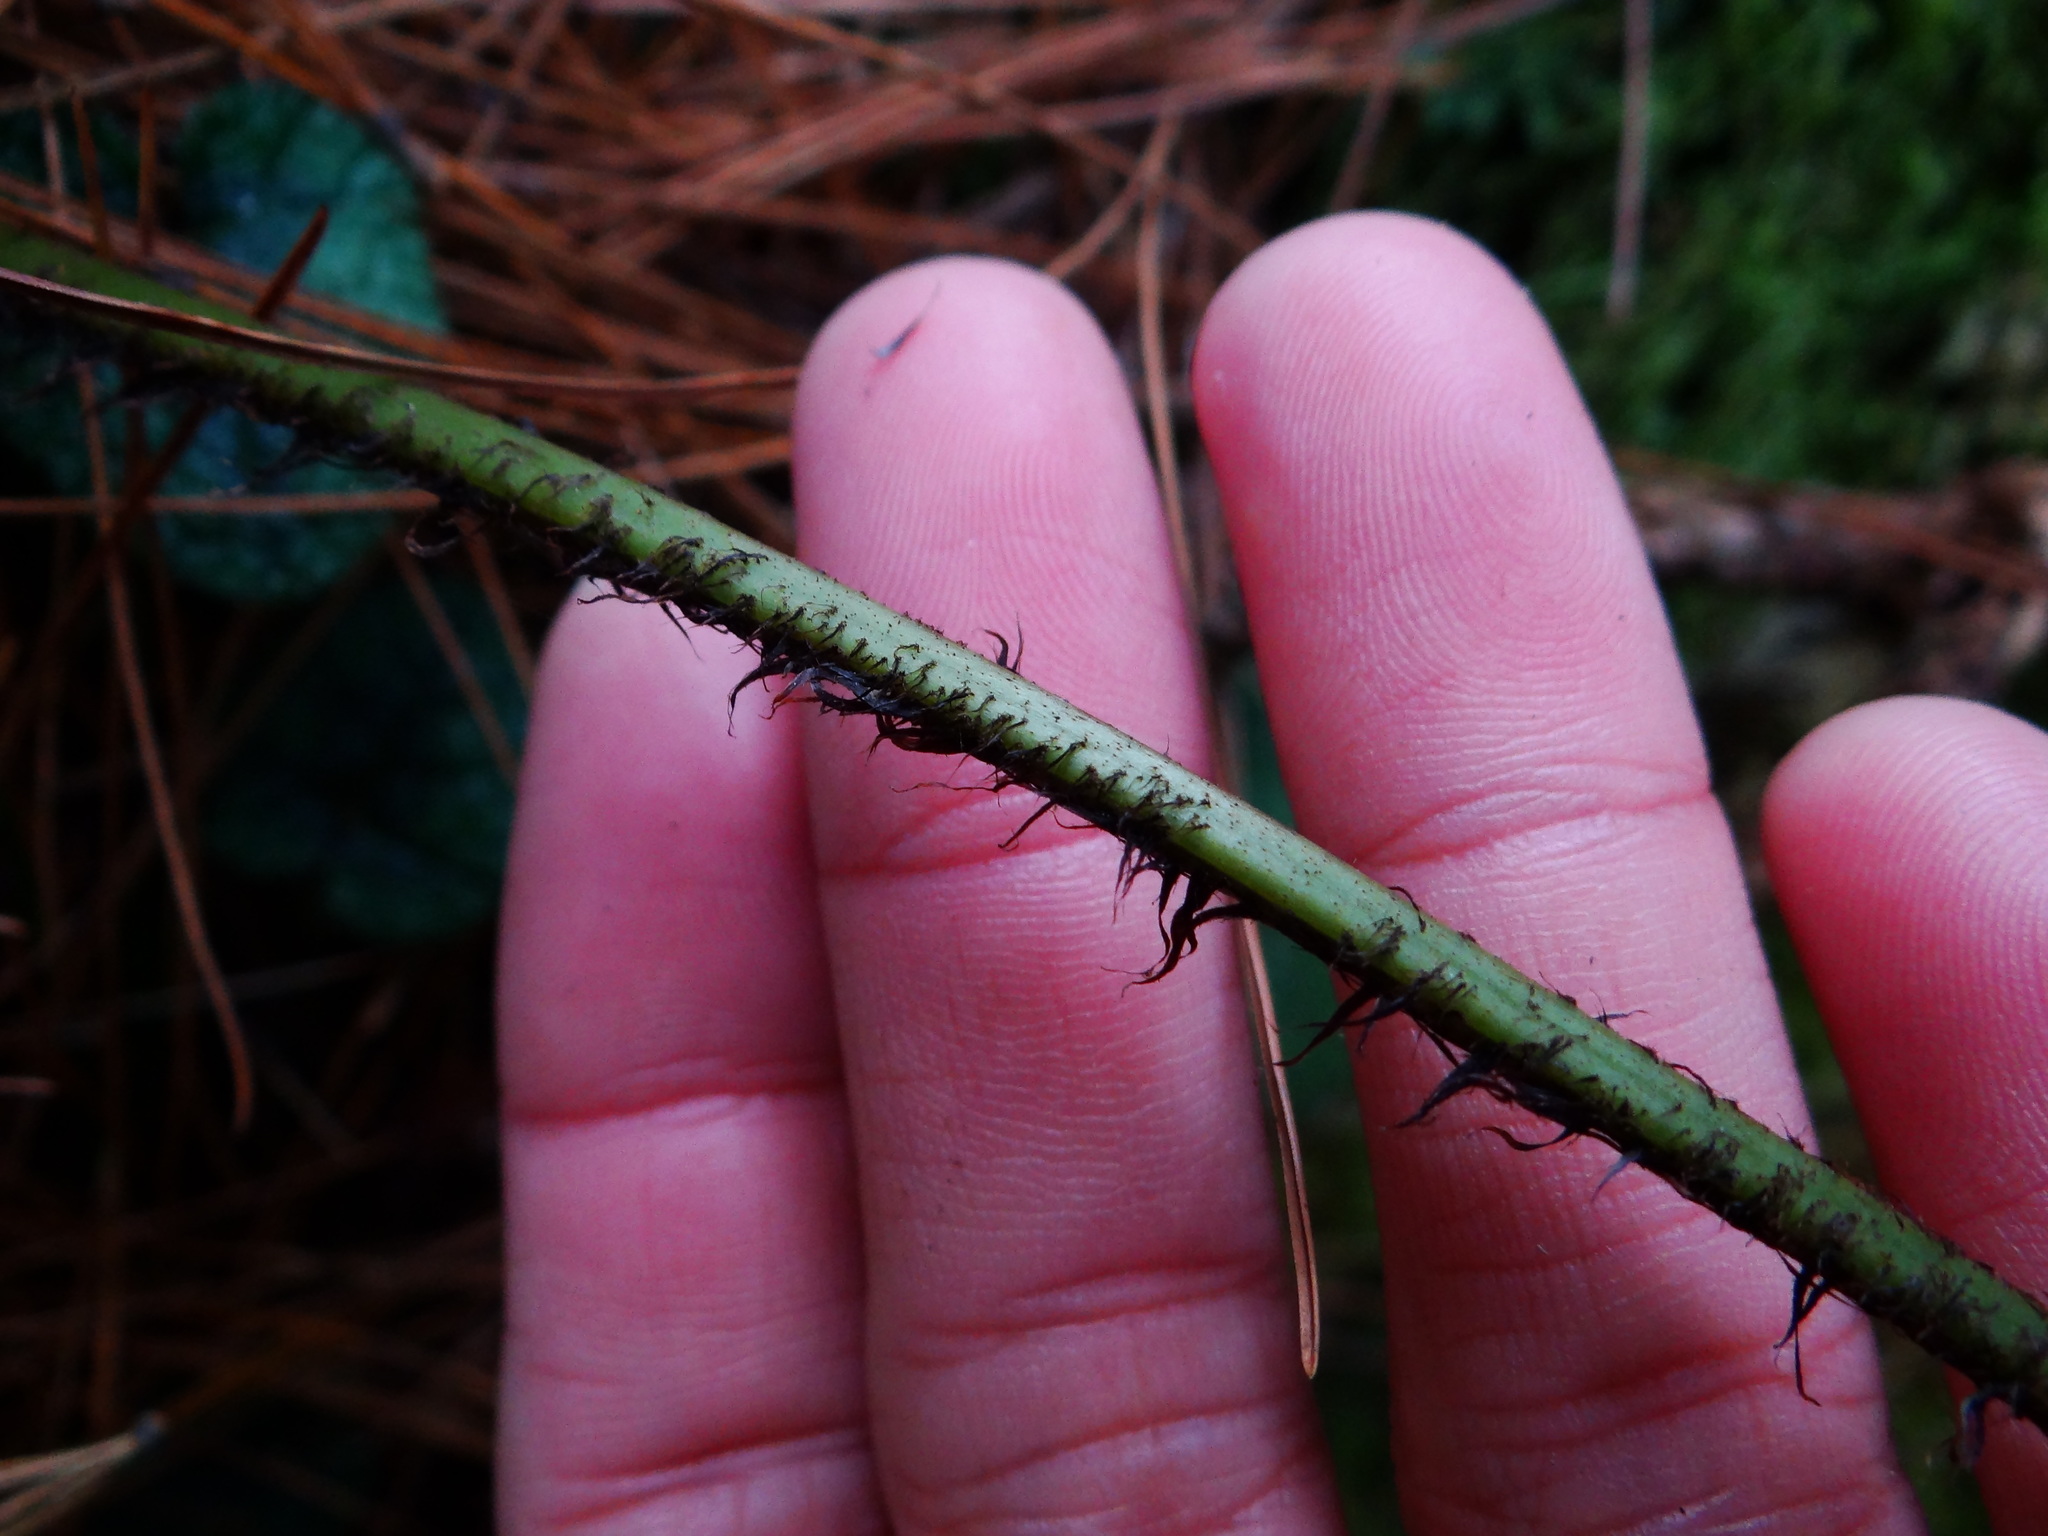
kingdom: Plantae
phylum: Tracheophyta
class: Polypodiopsida
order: Polypodiales
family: Dryopteridaceae
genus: Dryopteris
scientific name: Dryopteris lepidopoda
